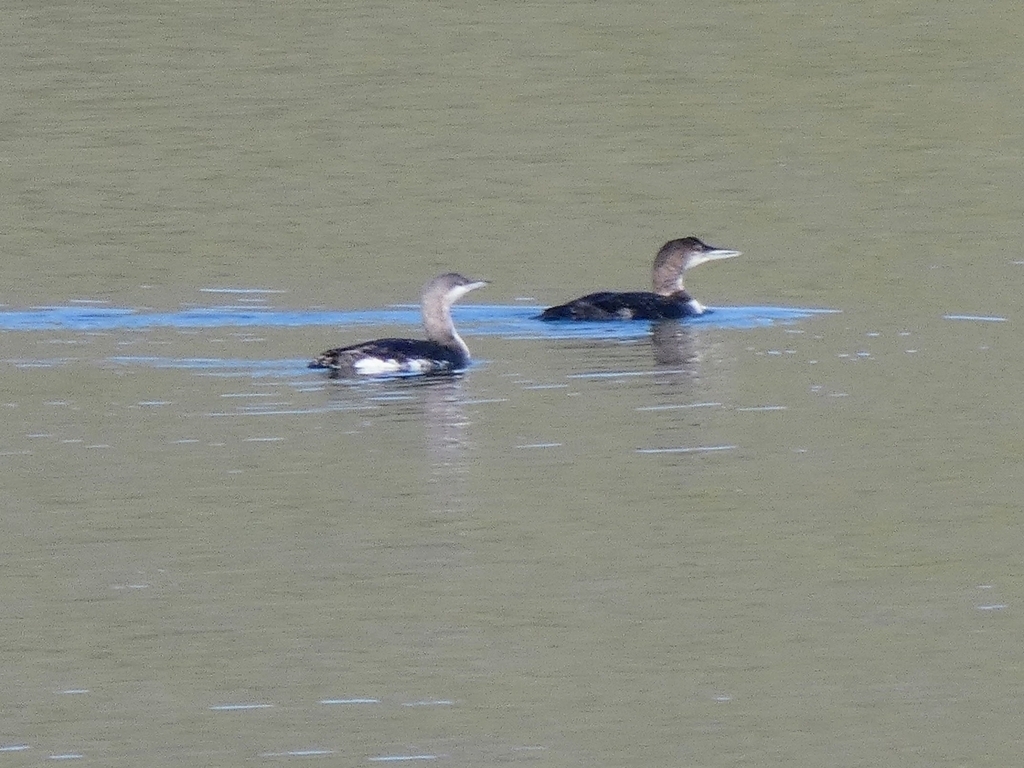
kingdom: Animalia
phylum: Chordata
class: Aves
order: Gaviiformes
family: Gaviidae
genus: Gavia
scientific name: Gavia arctica
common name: Black-throated loon
